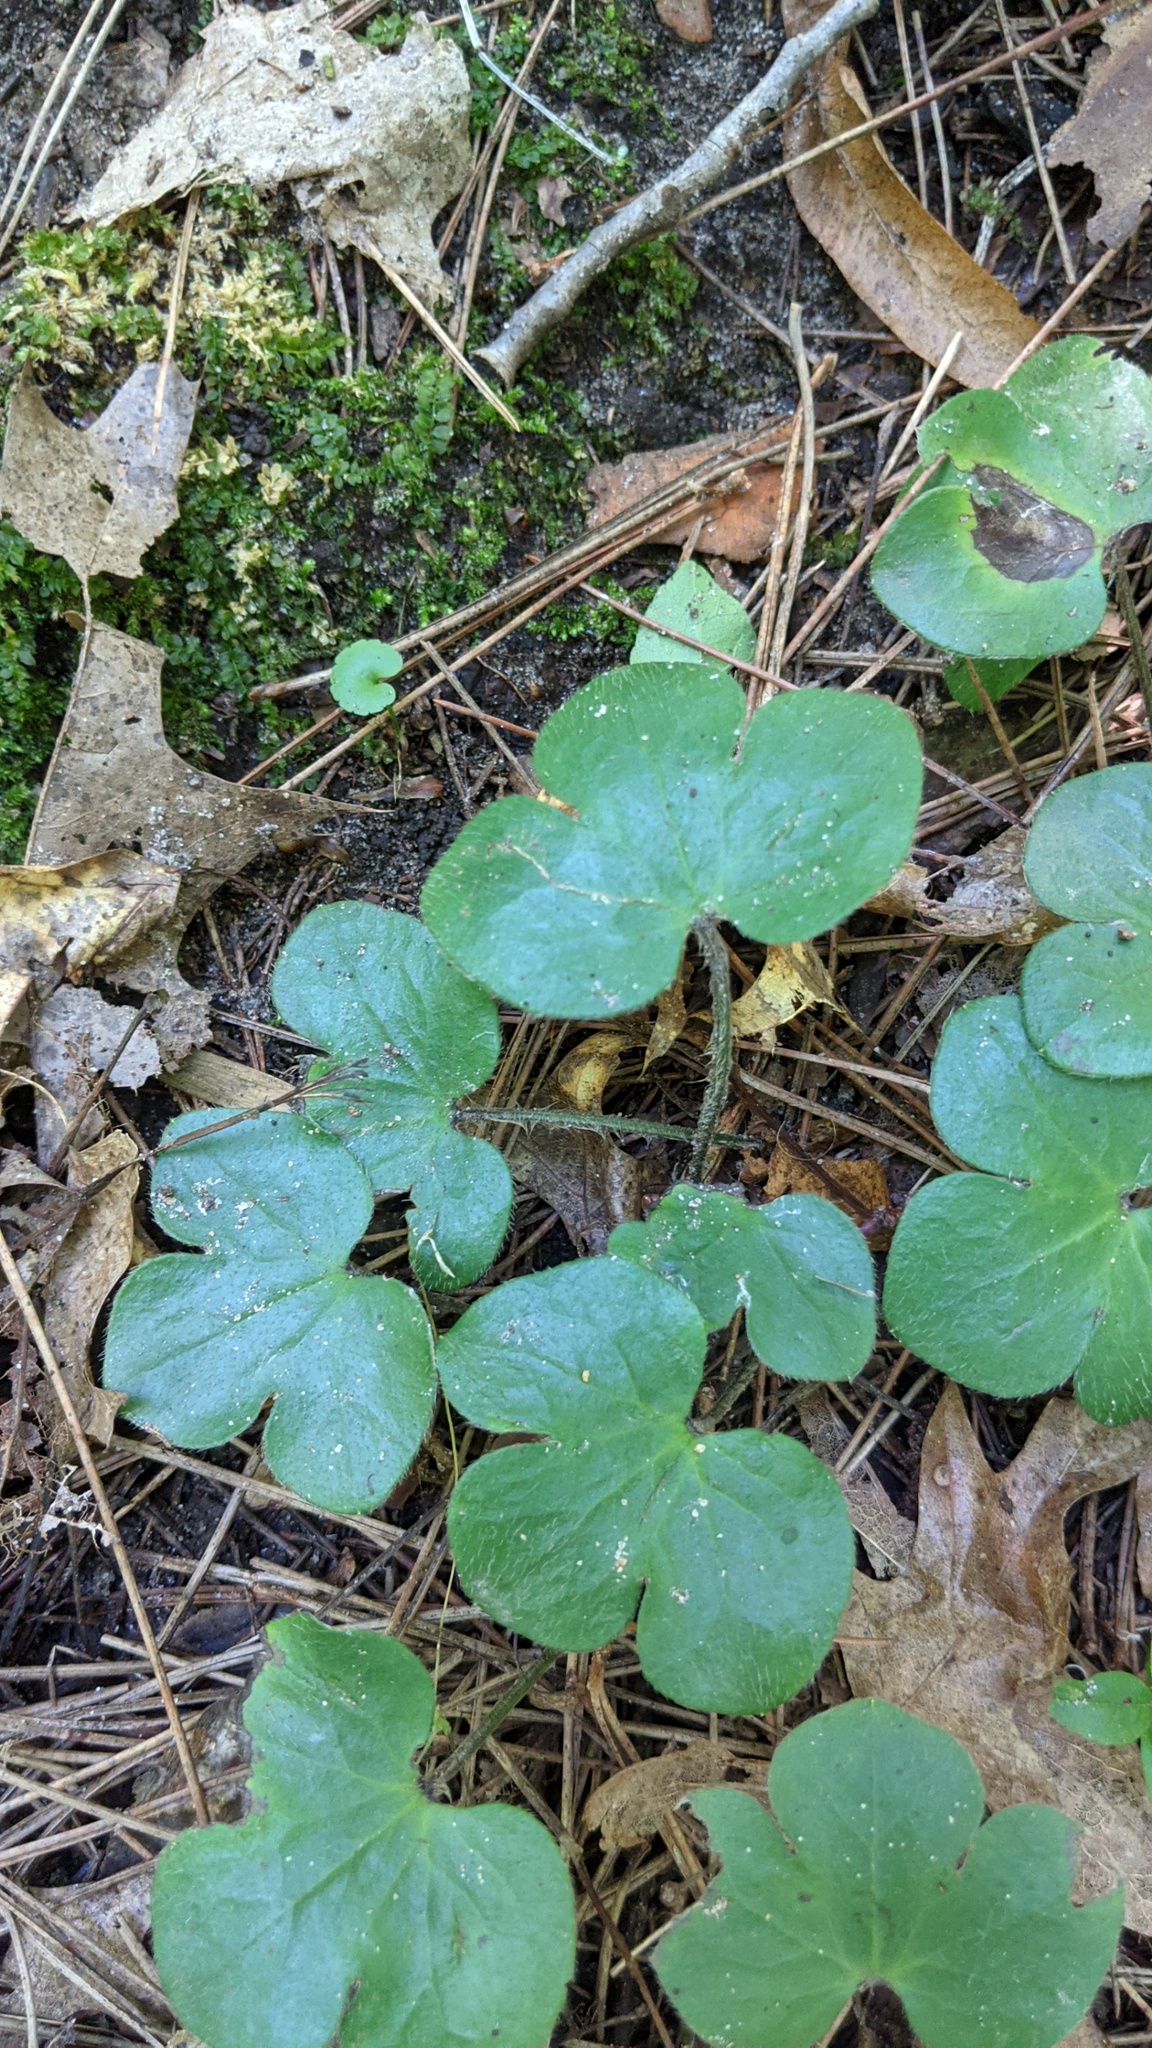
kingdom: Plantae
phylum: Tracheophyta
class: Magnoliopsida
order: Ranunculales
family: Ranunculaceae
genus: Hepatica
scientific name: Hepatica americana
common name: American hepatica
